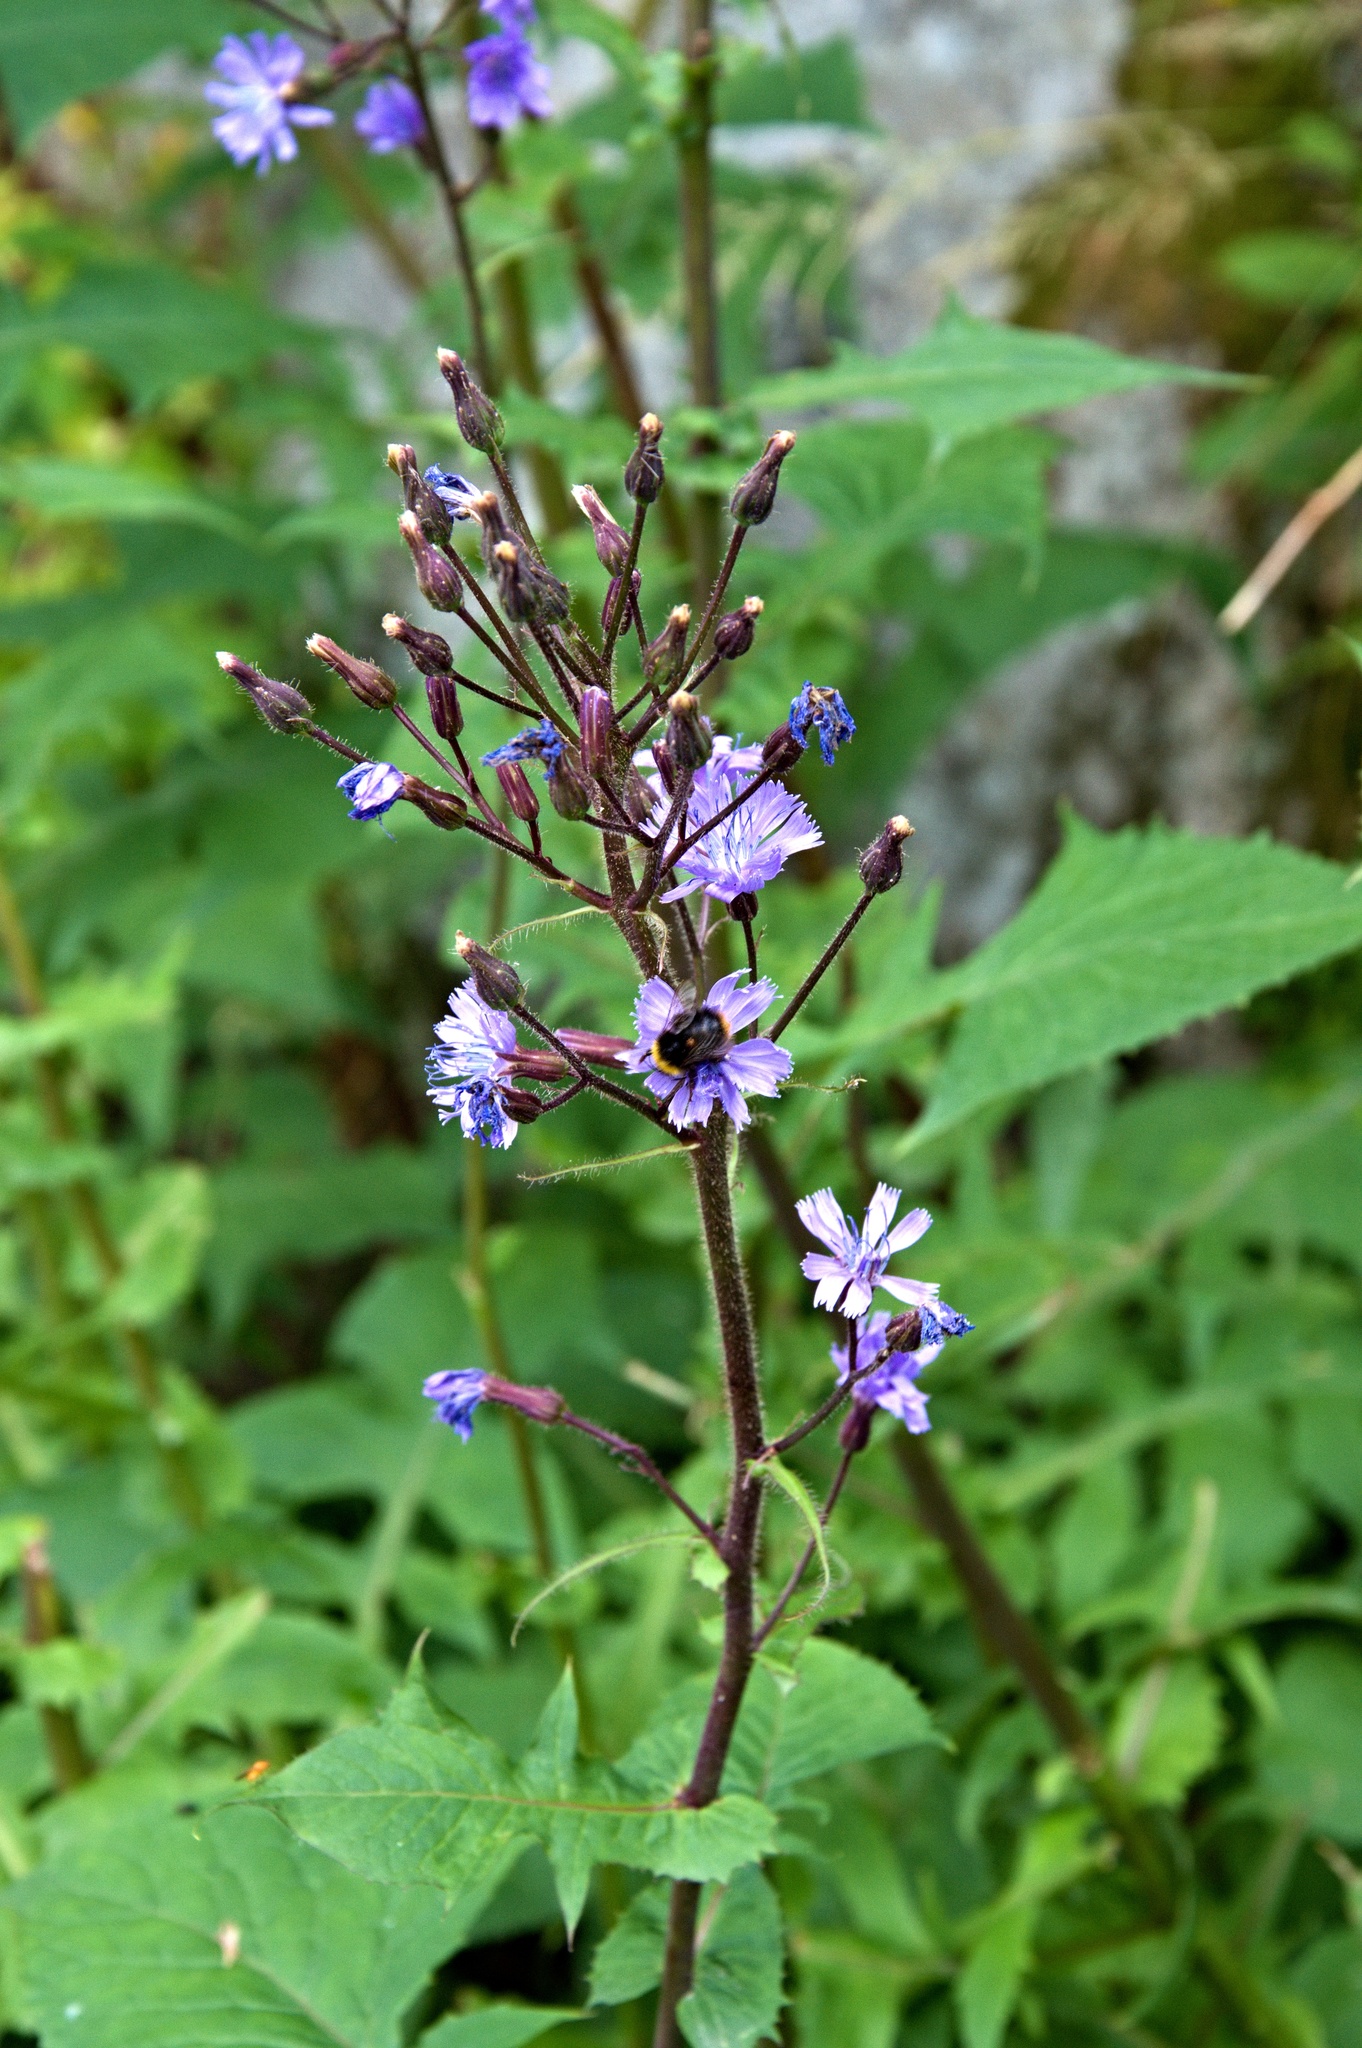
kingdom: Plantae
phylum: Tracheophyta
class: Magnoliopsida
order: Asterales
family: Asteraceae
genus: Cicerbita
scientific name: Cicerbita alpina
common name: Alpine blue-sow-thistle
